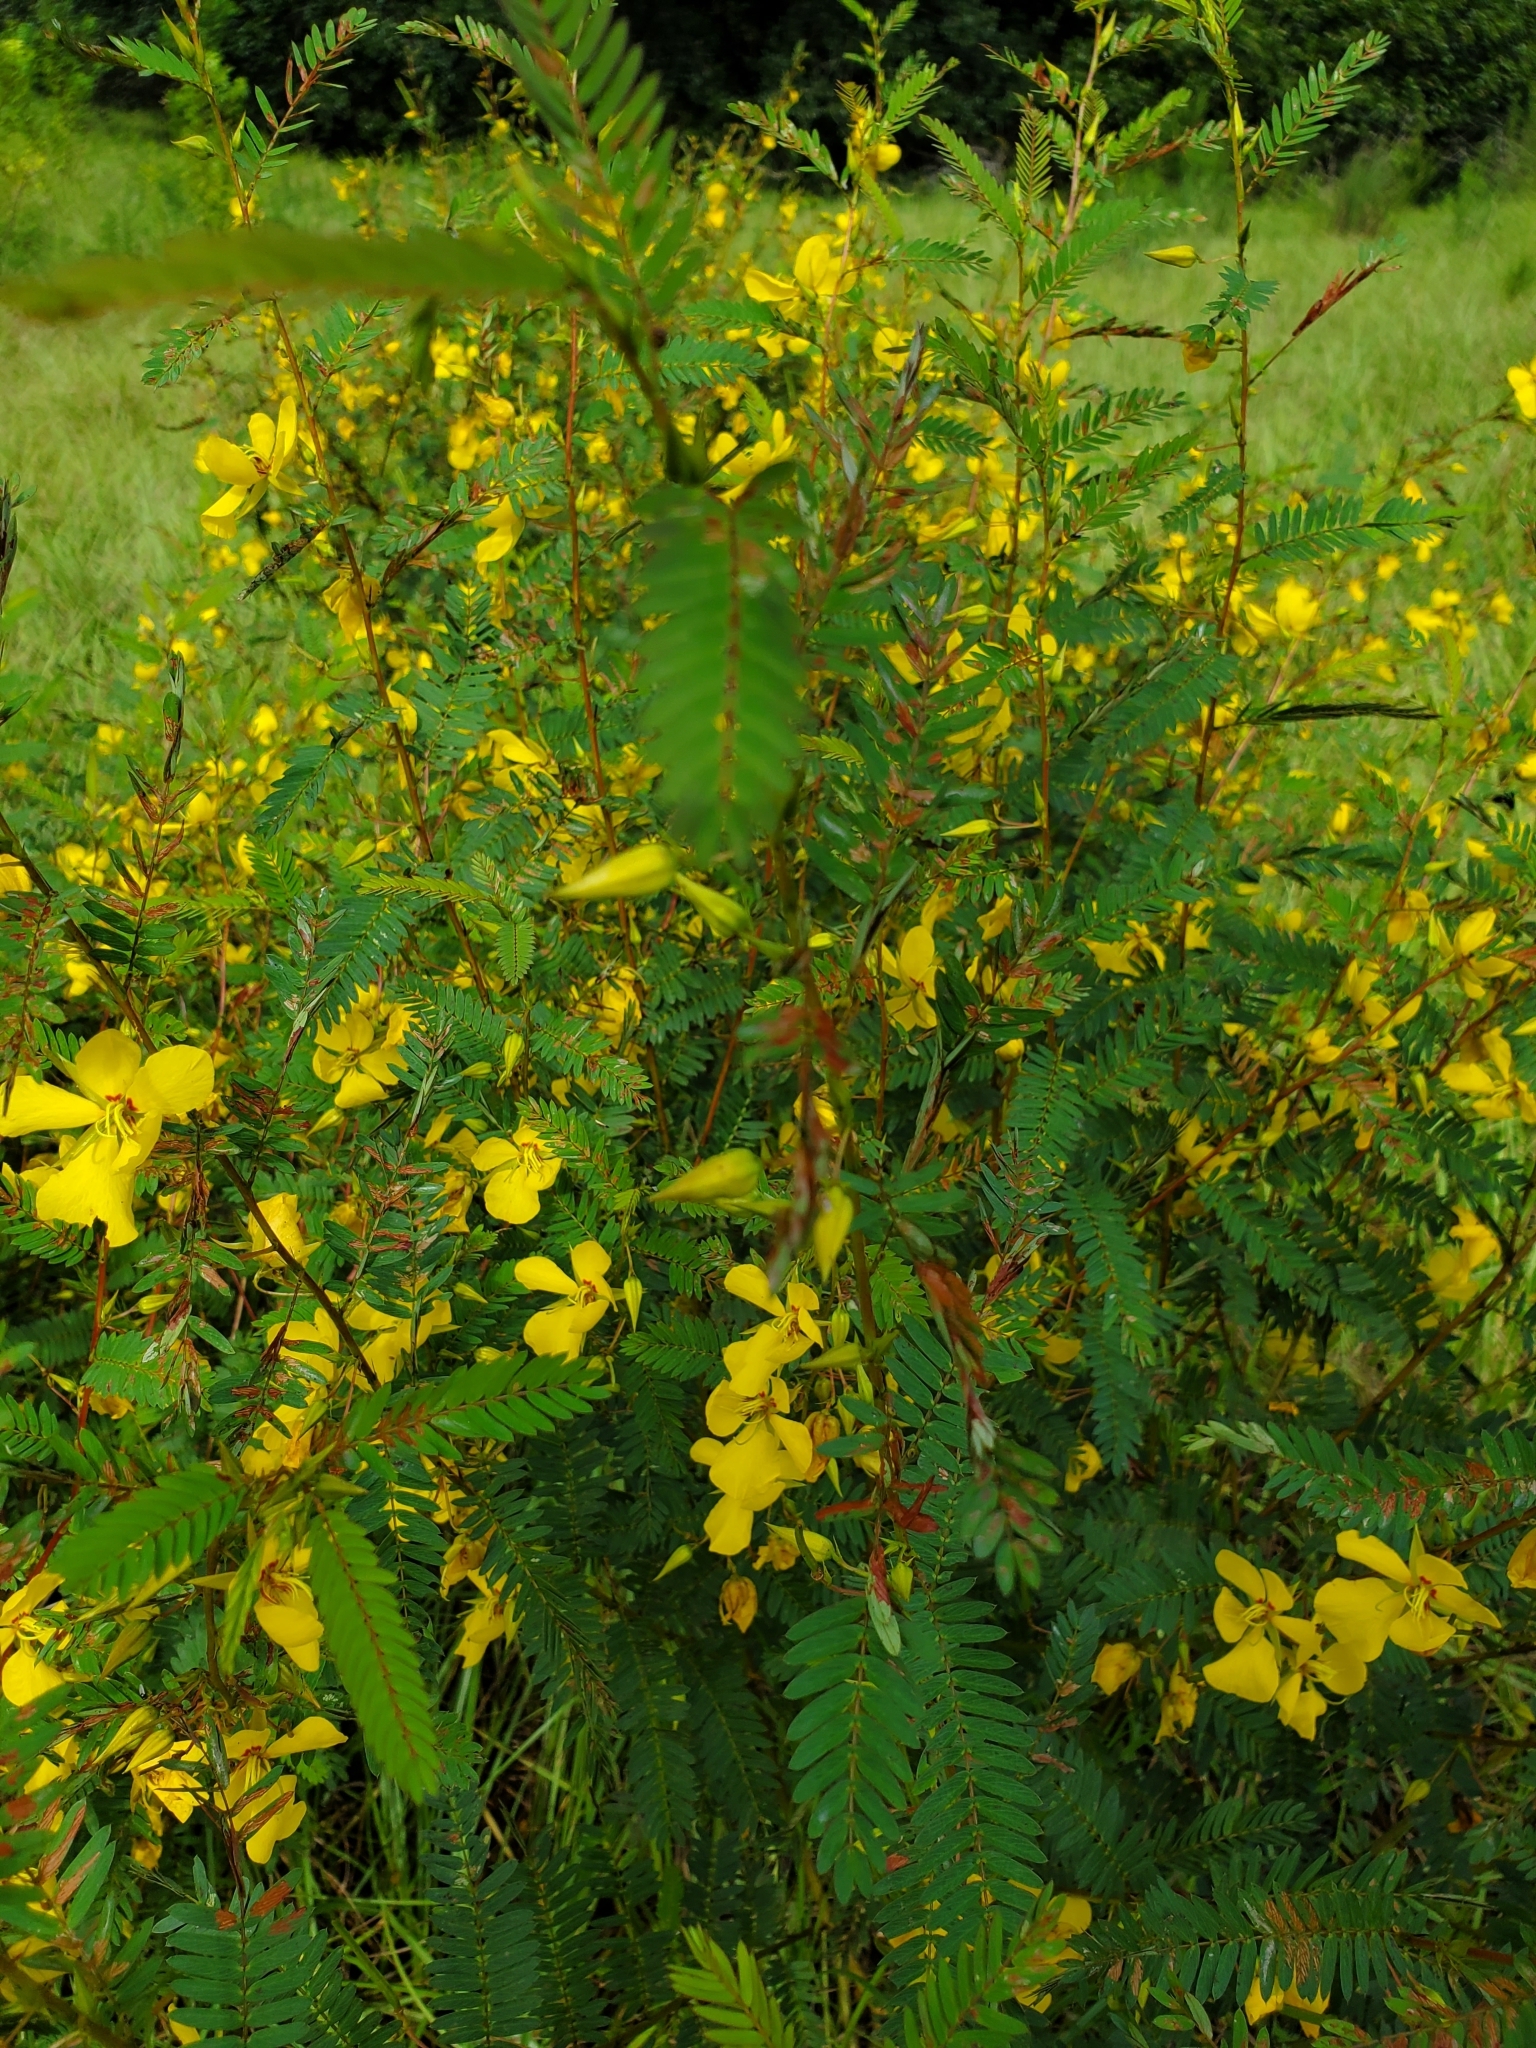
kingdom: Plantae
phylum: Tracheophyta
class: Magnoliopsida
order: Fabales
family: Fabaceae
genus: Chamaecrista
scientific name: Chamaecrista fasciculata
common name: Golden cassia
